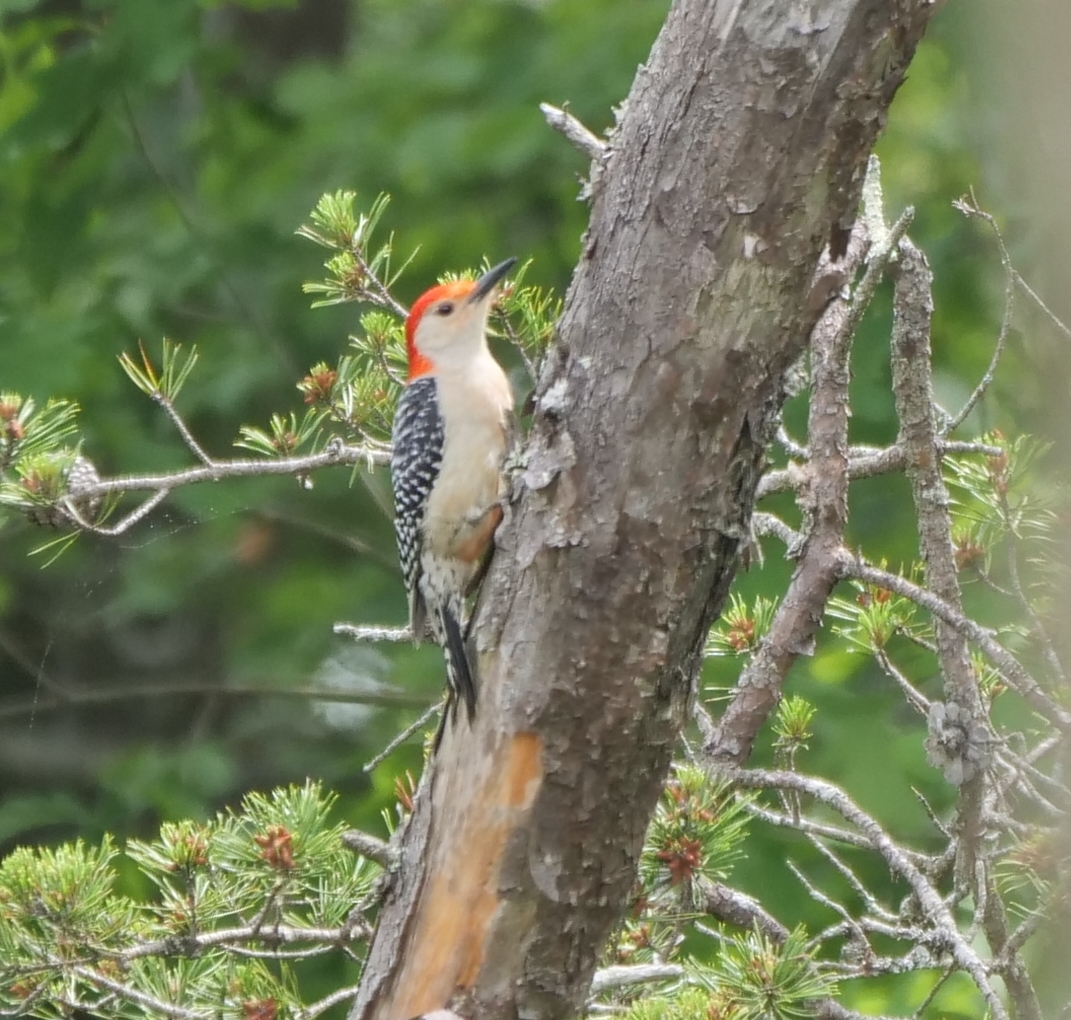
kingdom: Animalia
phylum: Chordata
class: Aves
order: Piciformes
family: Picidae
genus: Melanerpes
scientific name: Melanerpes carolinus
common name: Red-bellied woodpecker
